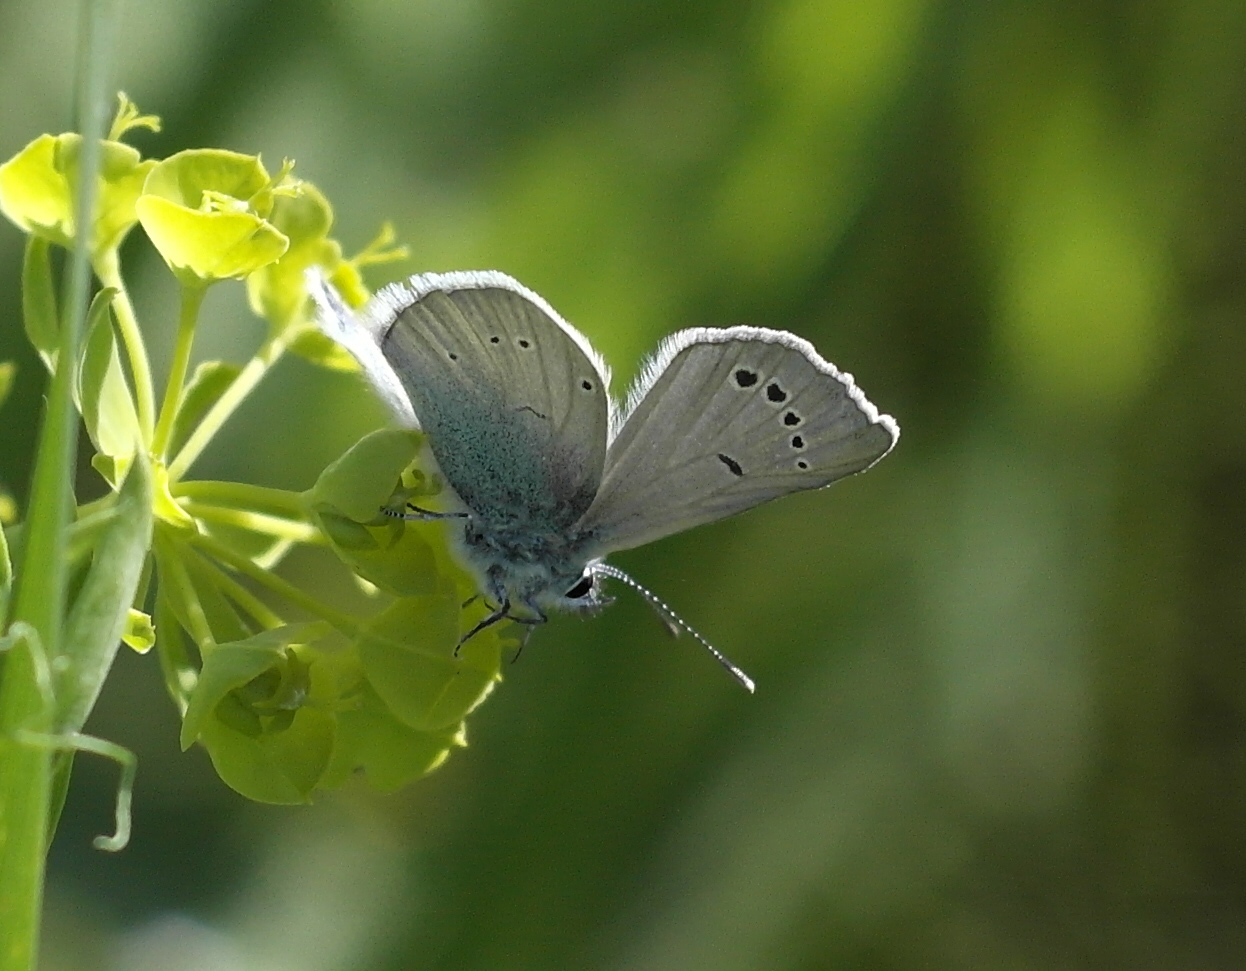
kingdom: Animalia
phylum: Arthropoda
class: Insecta
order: Lepidoptera
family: Lycaenidae
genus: Glaucopsyche
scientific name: Glaucopsyche alexis
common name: Green-underside blue
